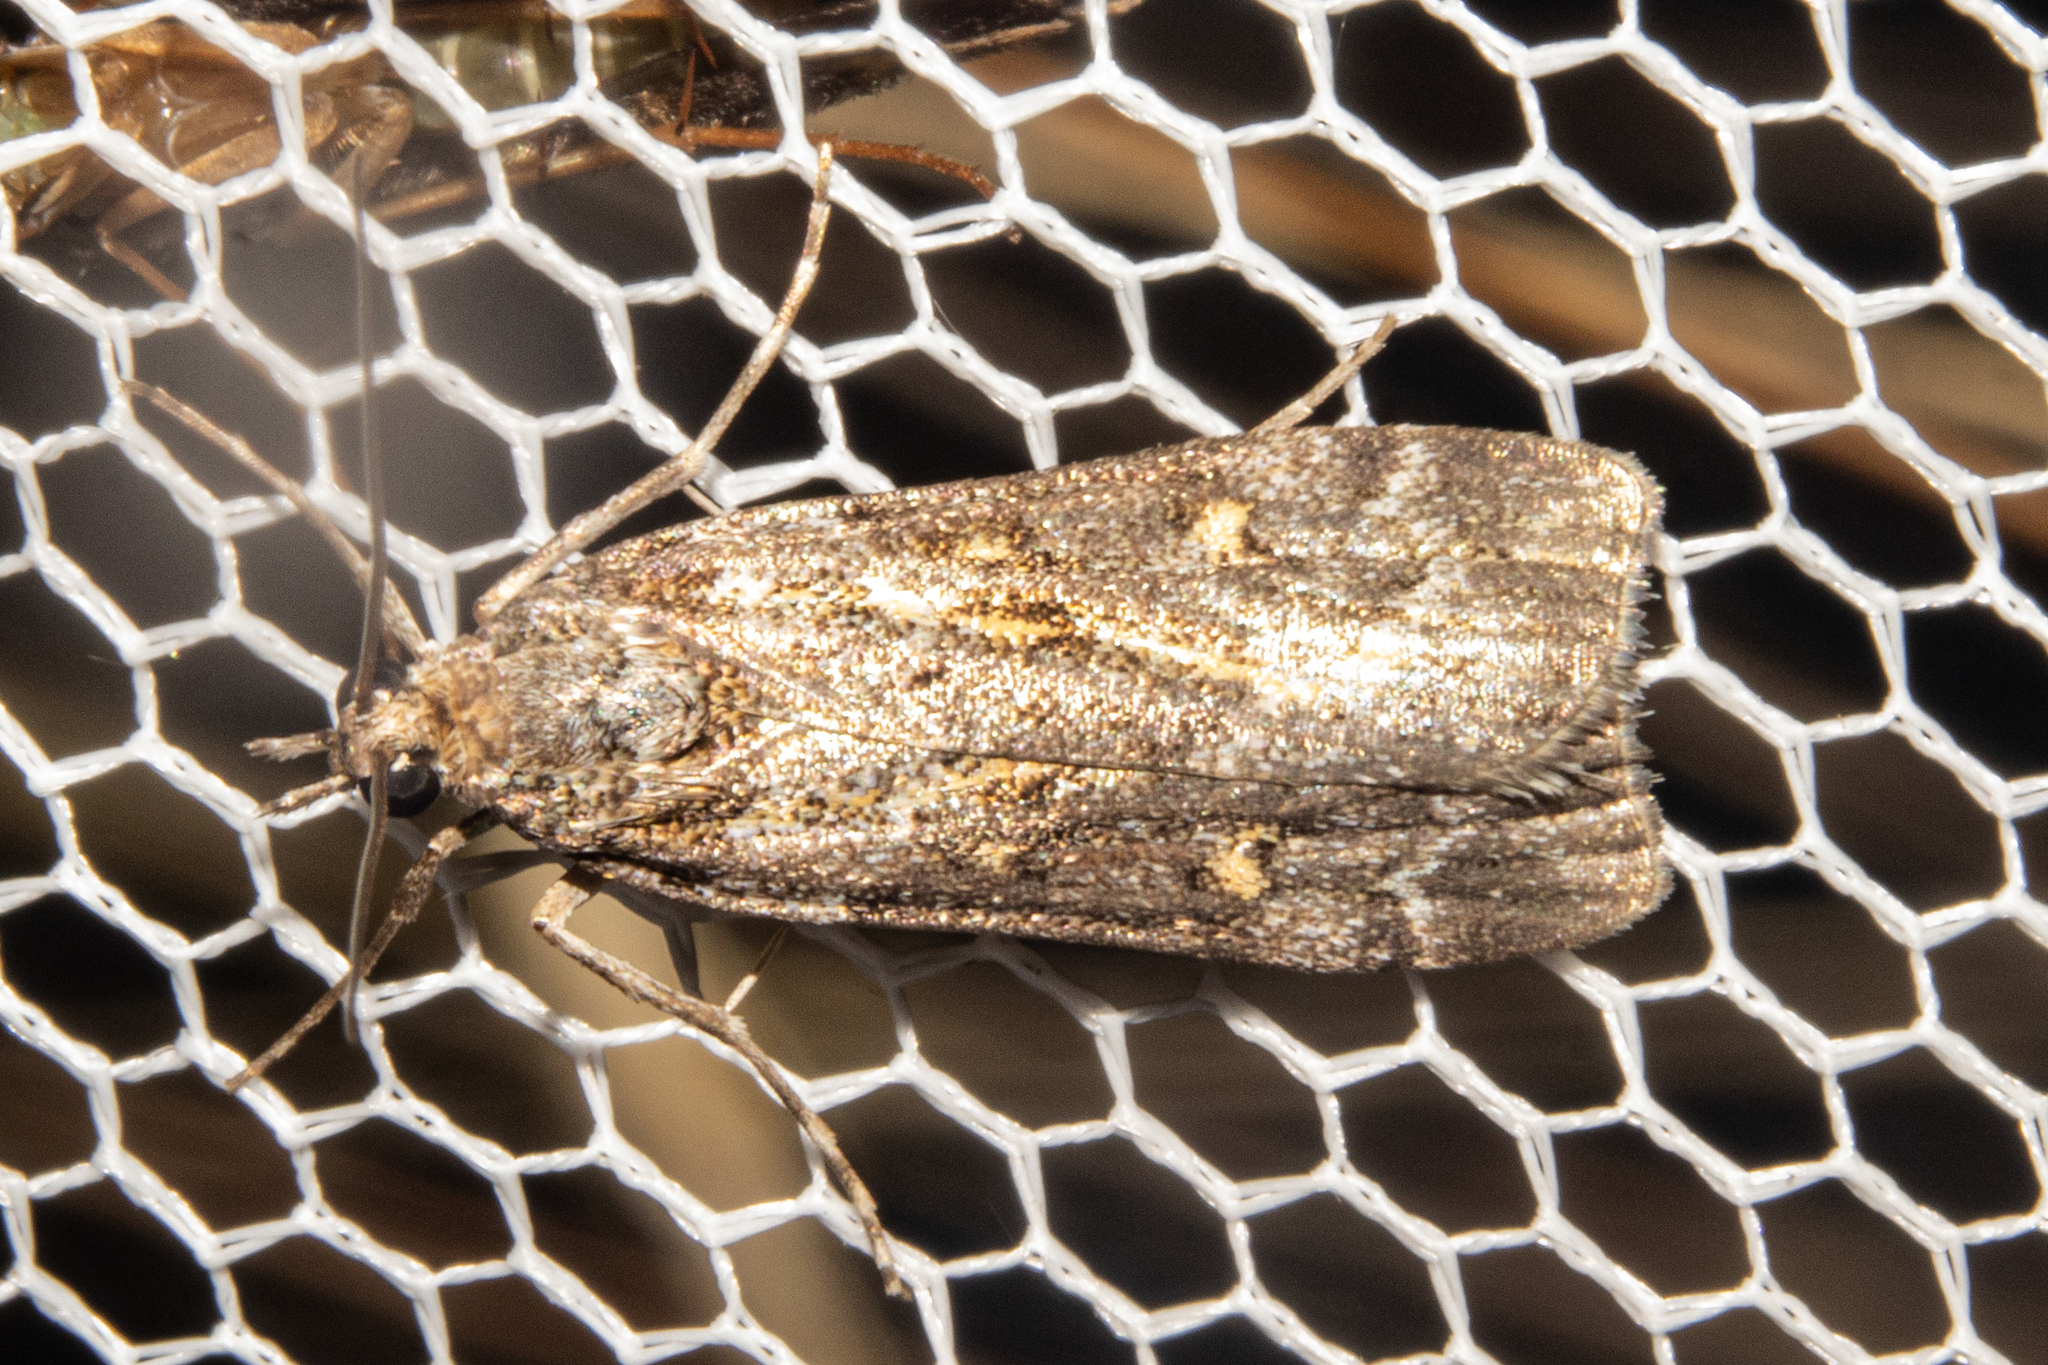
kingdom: Animalia
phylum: Arthropoda
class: Insecta
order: Lepidoptera
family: Crambidae
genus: Eudonia
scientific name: Eudonia diphtheralis
